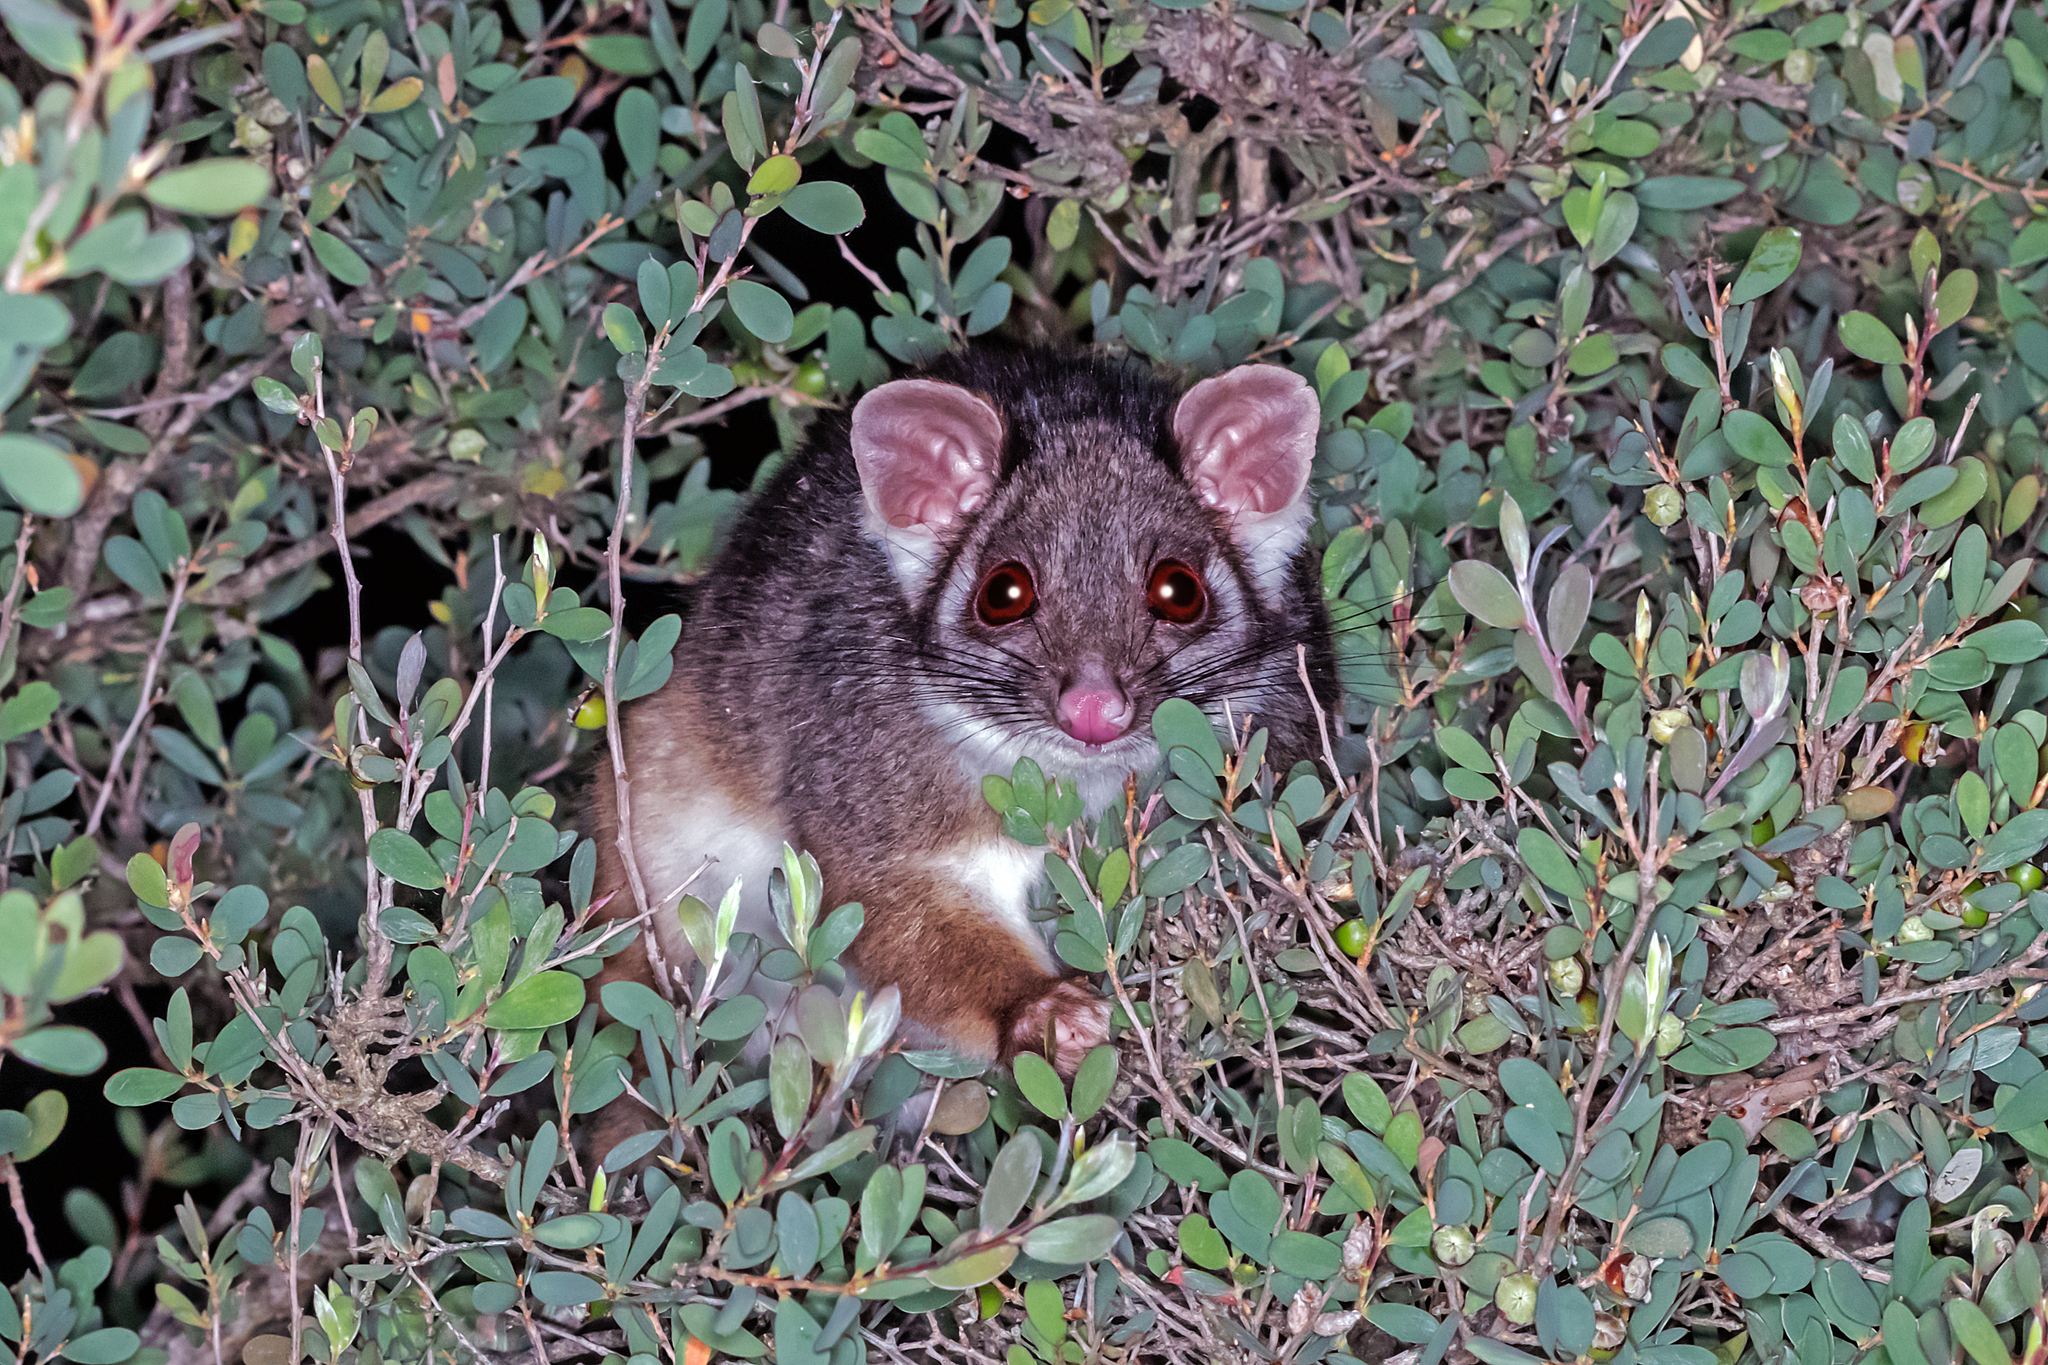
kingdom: Animalia
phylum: Chordata
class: Mammalia
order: Diprotodontia
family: Pseudocheiridae
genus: Pseudocheirus
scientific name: Pseudocheirus peregrinus
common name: Common ringtail possum
